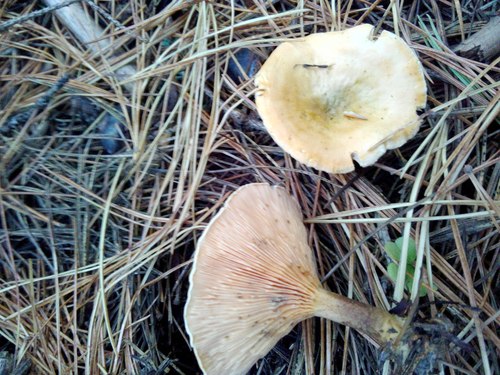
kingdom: Fungi
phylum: Basidiomycota
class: Agaricomycetes
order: Boletales
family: Hygrophoropsidaceae
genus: Hygrophoropsis
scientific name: Hygrophoropsis aurantiaca
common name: False chanterelle
